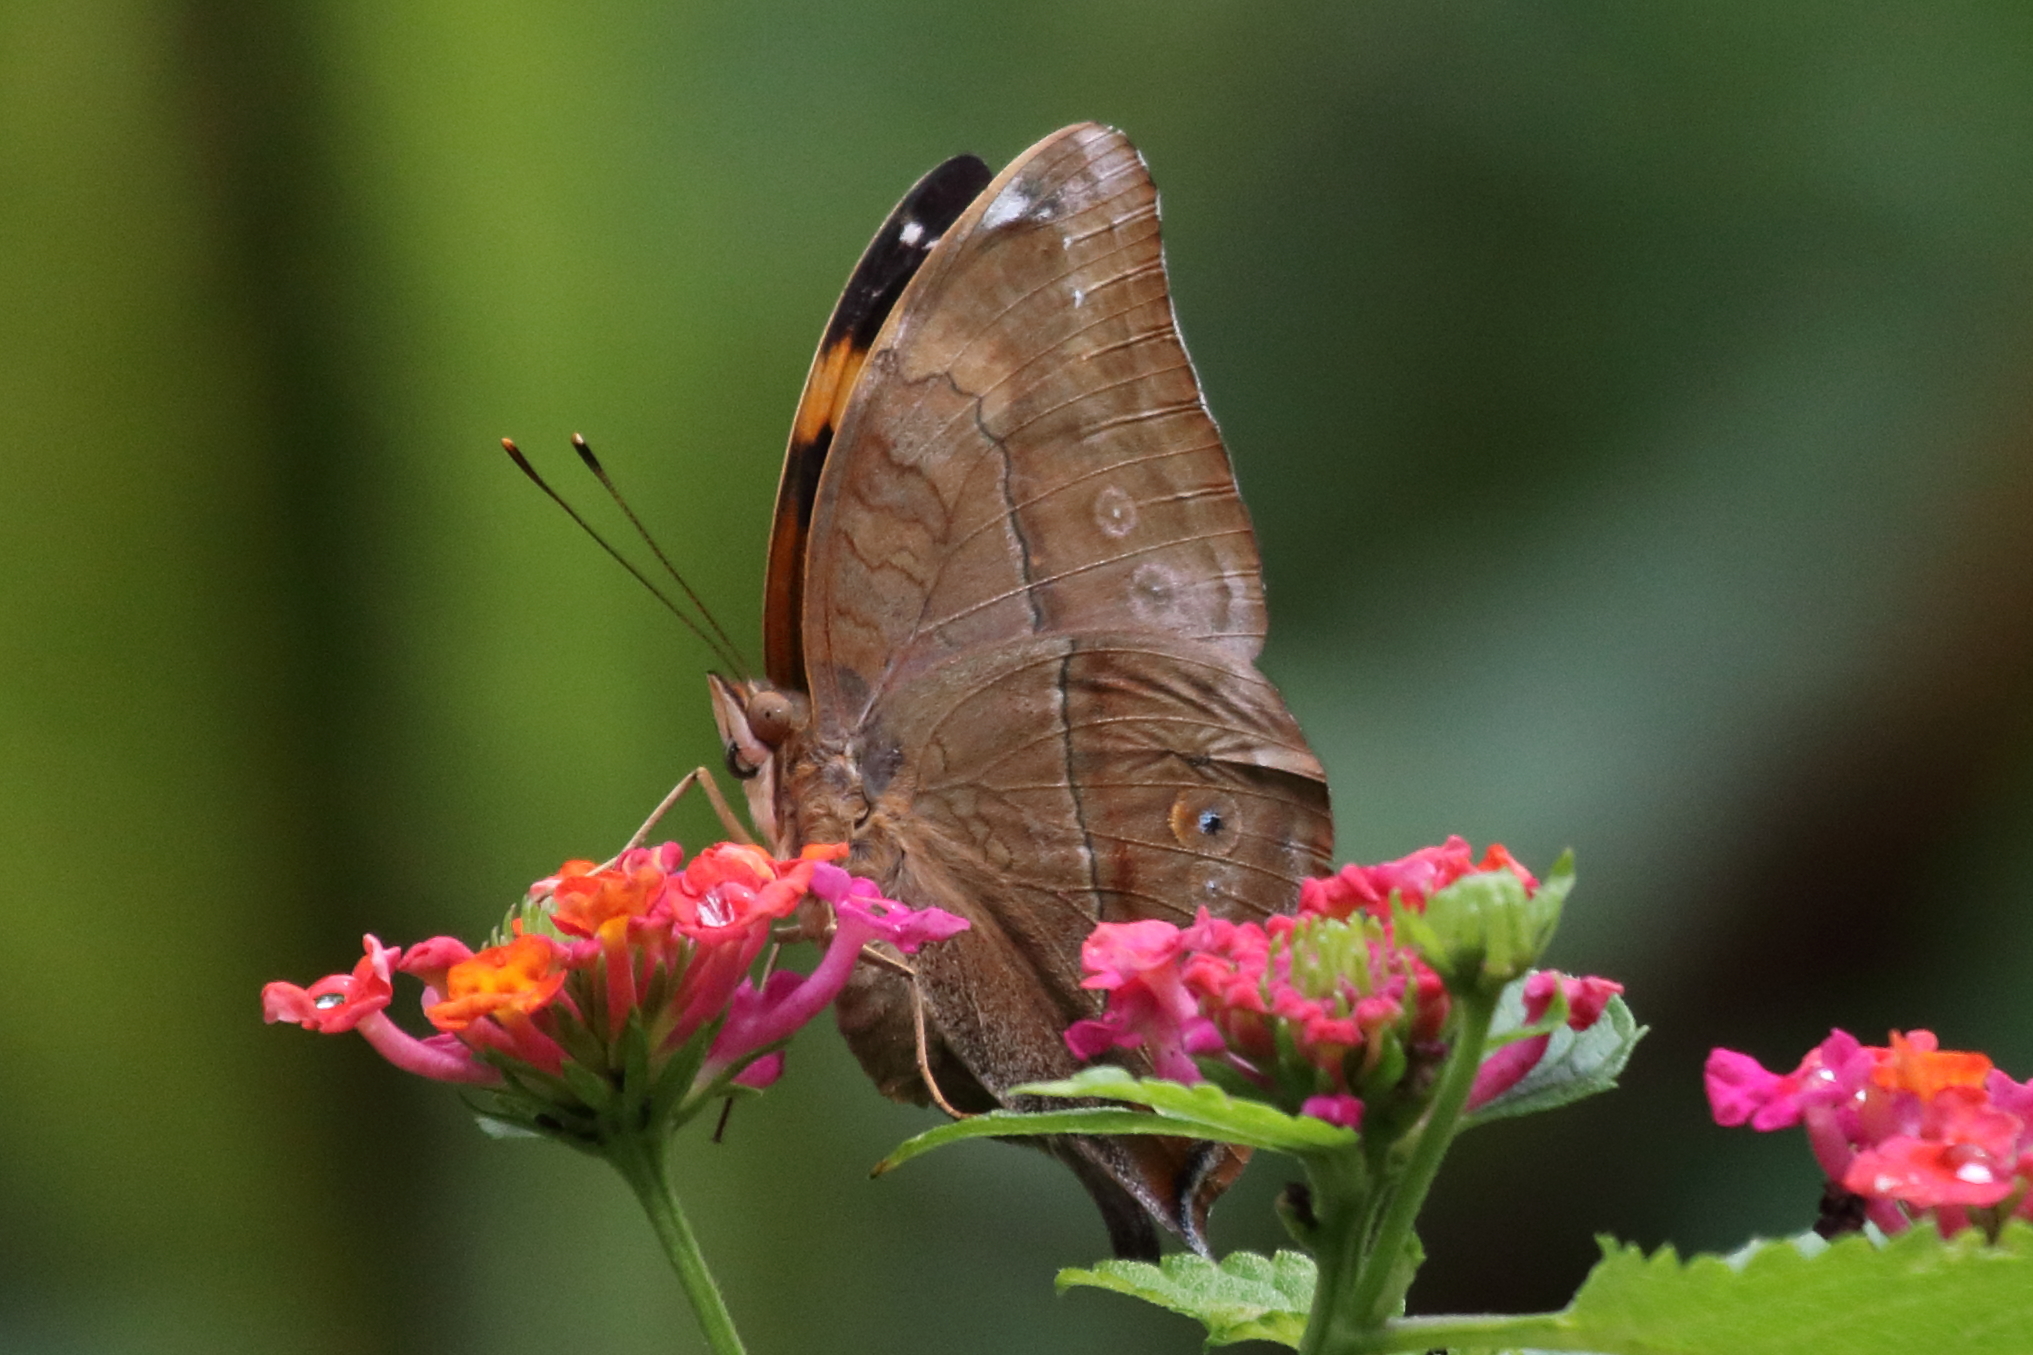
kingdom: Animalia
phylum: Arthropoda
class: Insecta
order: Lepidoptera
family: Nymphalidae
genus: Doleschallia
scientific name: Doleschallia bisaltide
